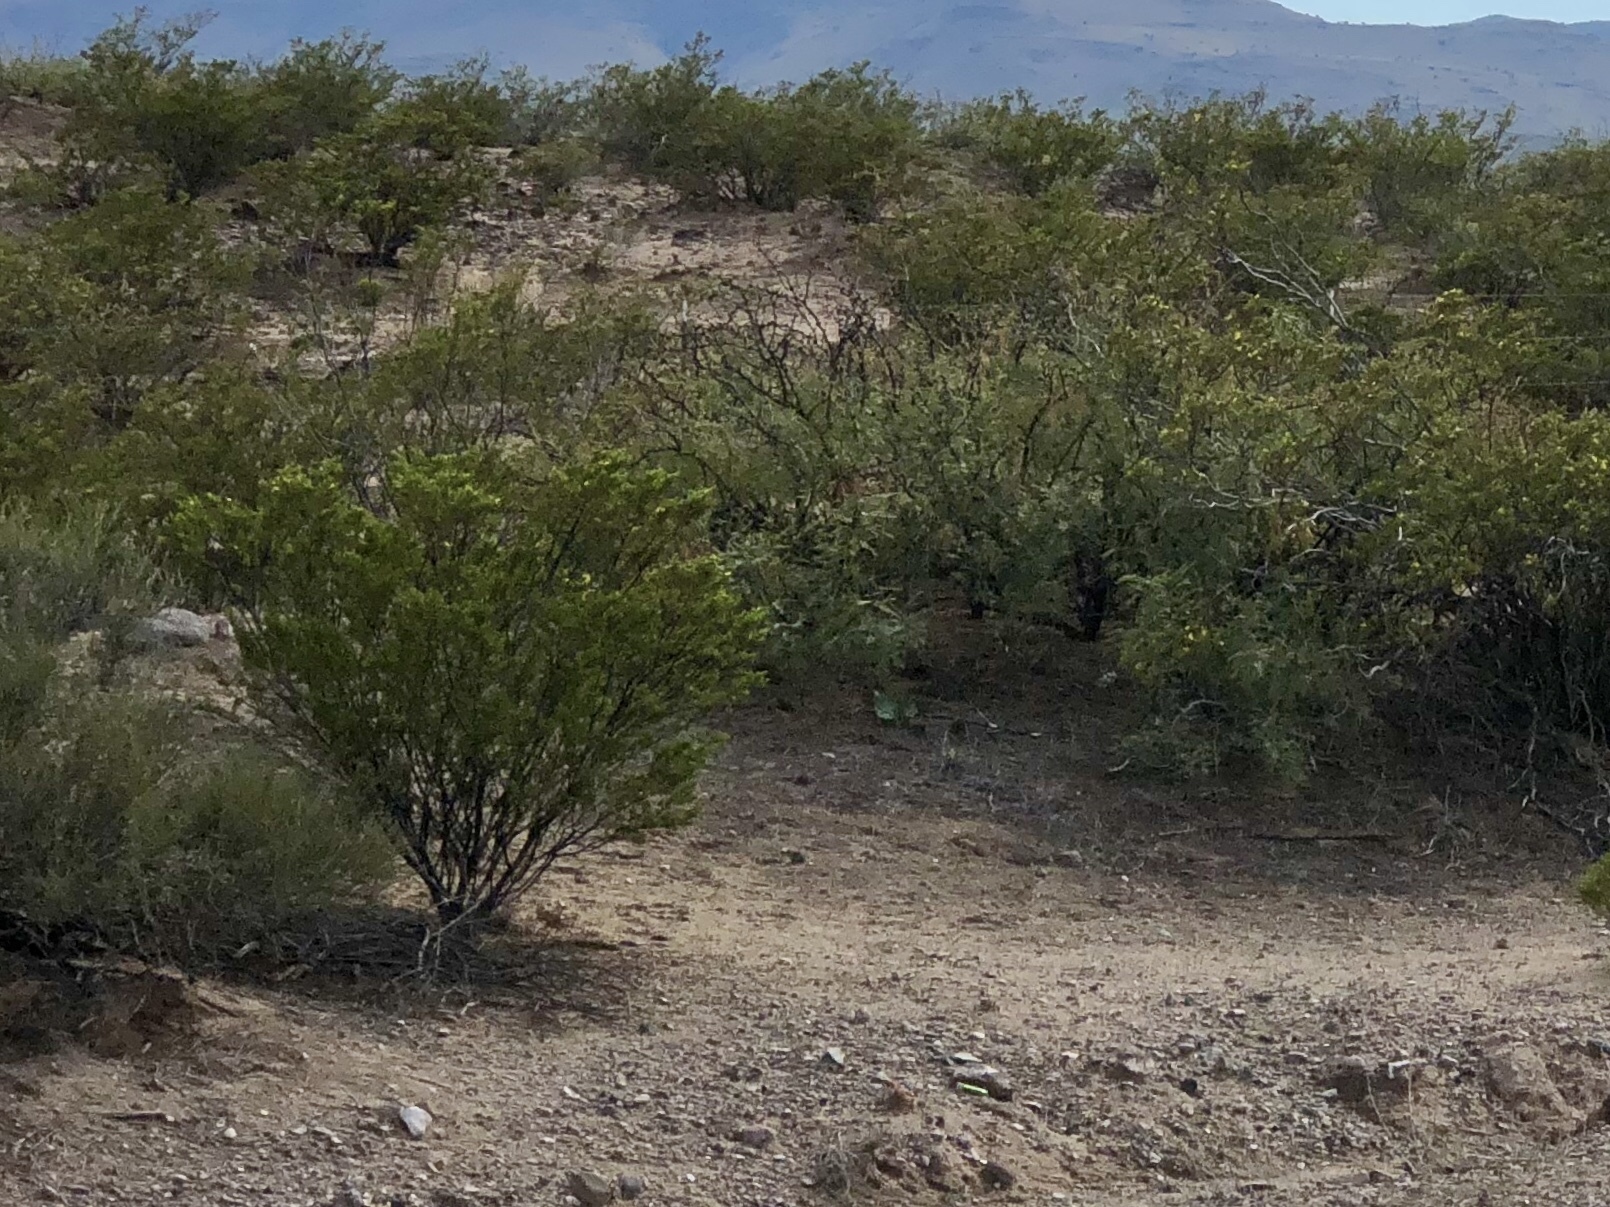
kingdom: Plantae
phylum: Tracheophyta
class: Magnoliopsida
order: Zygophyllales
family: Zygophyllaceae
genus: Larrea
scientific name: Larrea tridentata
